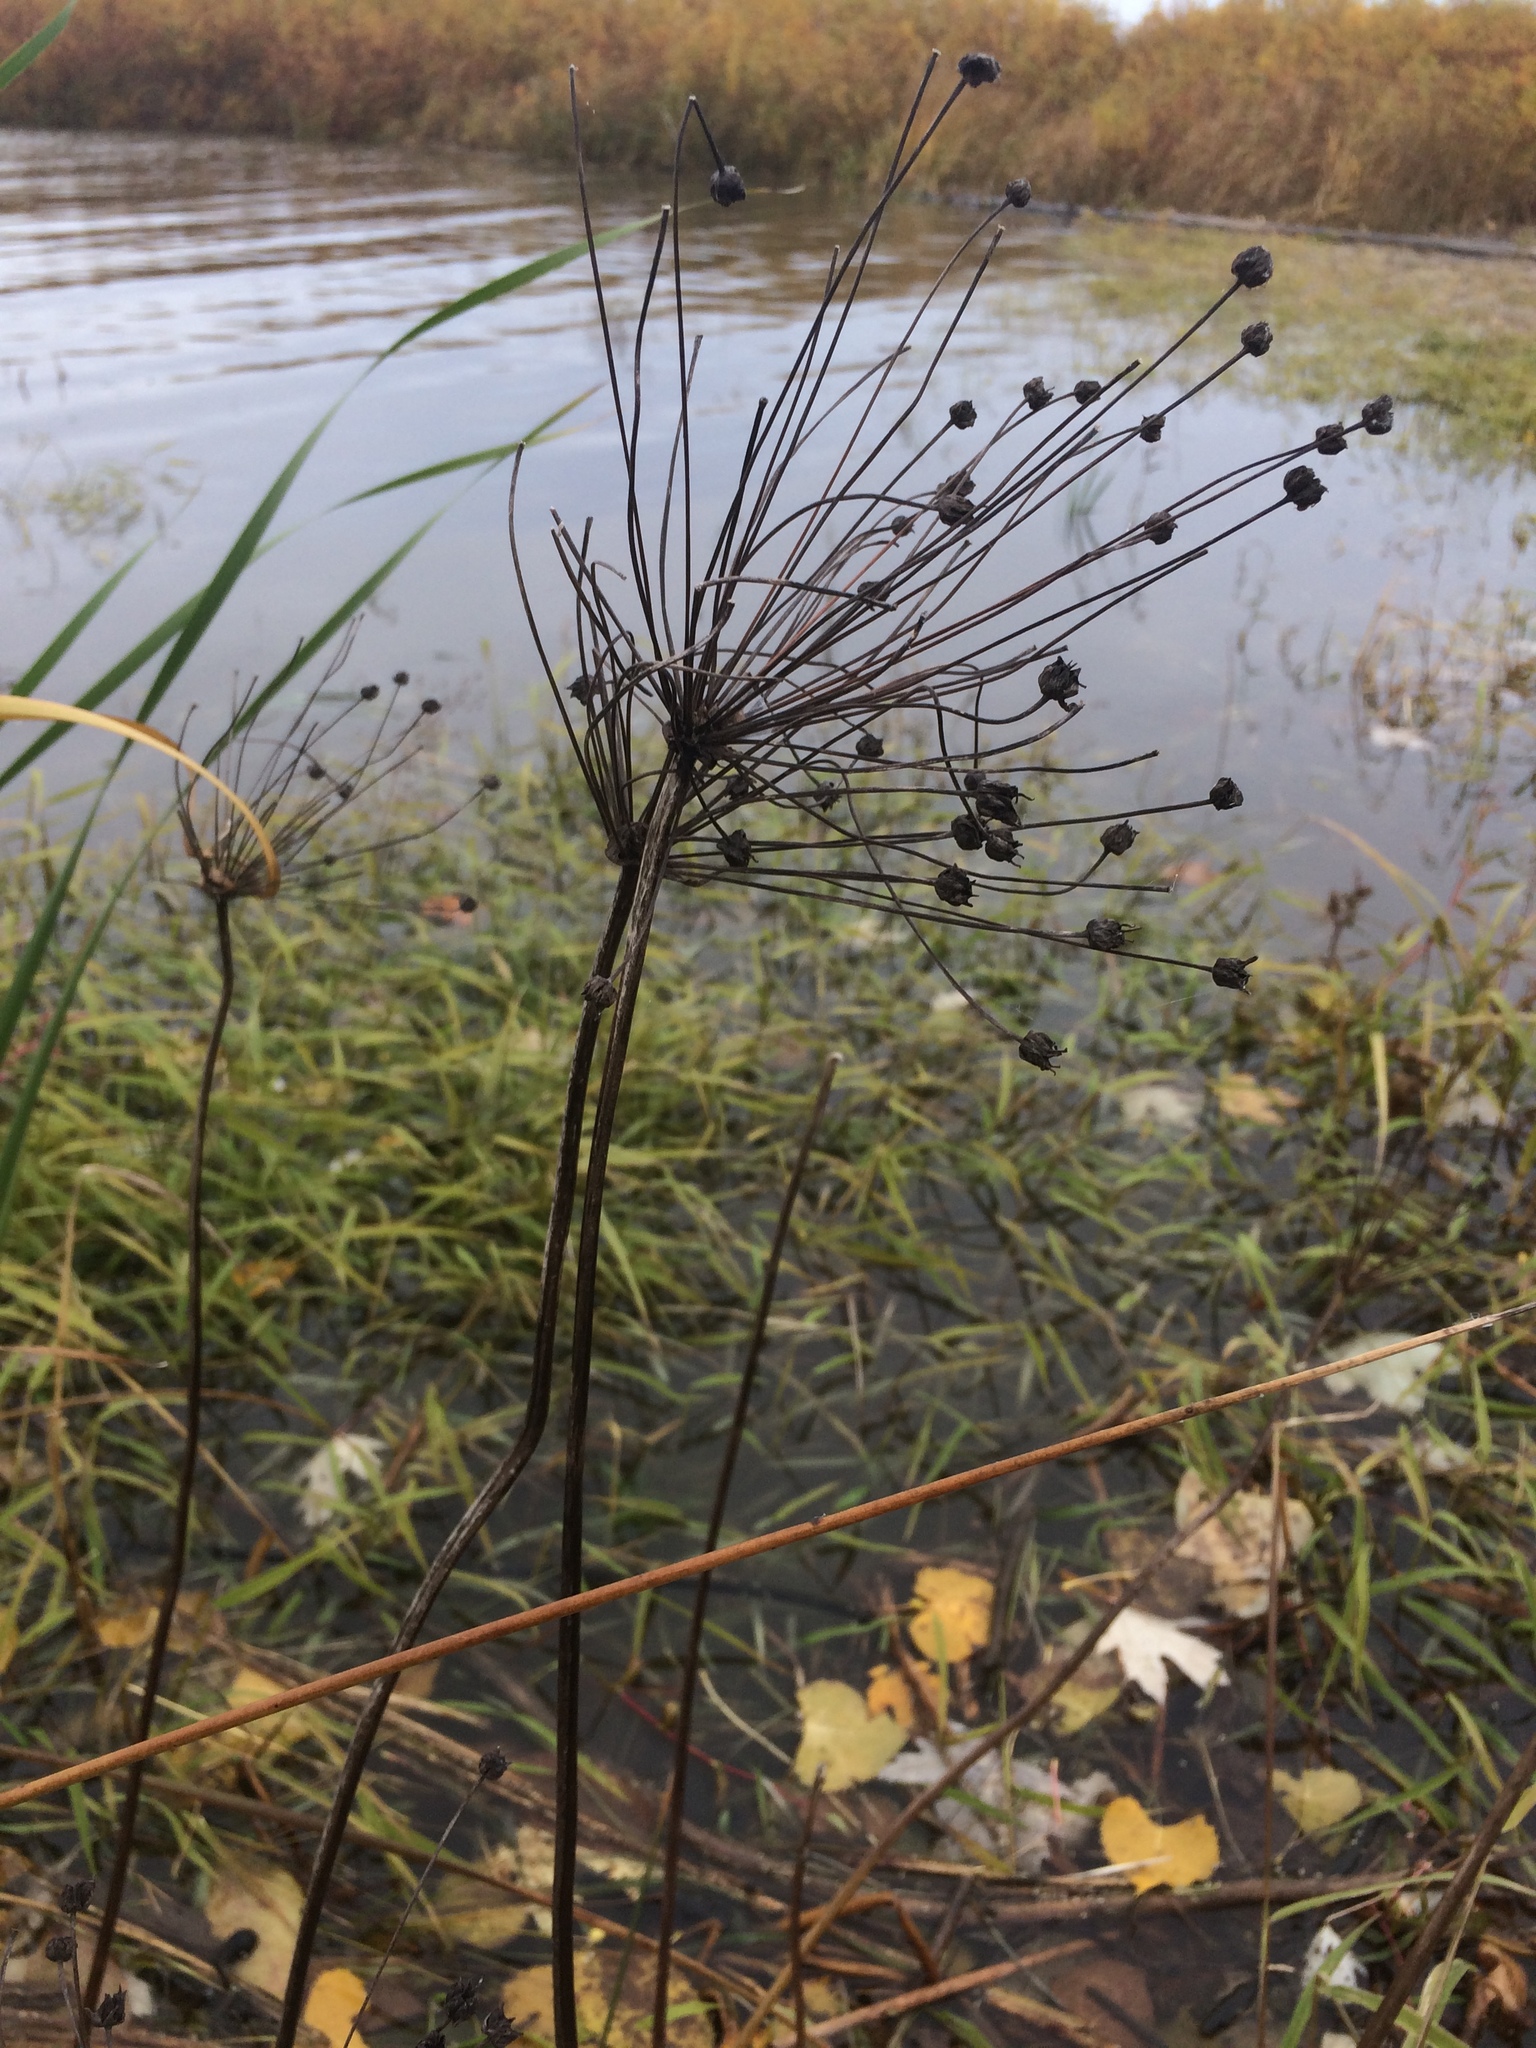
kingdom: Plantae
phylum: Tracheophyta
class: Liliopsida
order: Alismatales
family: Butomaceae
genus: Butomus
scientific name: Butomus umbellatus
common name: Flowering-rush
